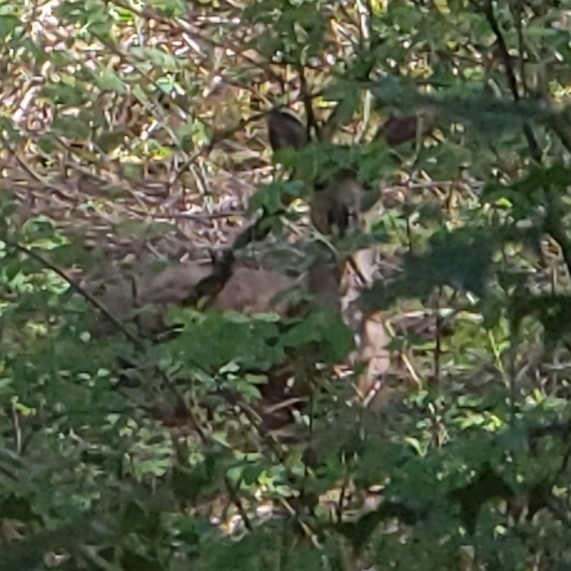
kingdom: Animalia
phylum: Chordata
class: Mammalia
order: Artiodactyla
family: Cervidae
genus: Odocoileus
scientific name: Odocoileus hemionus
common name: Mule deer
